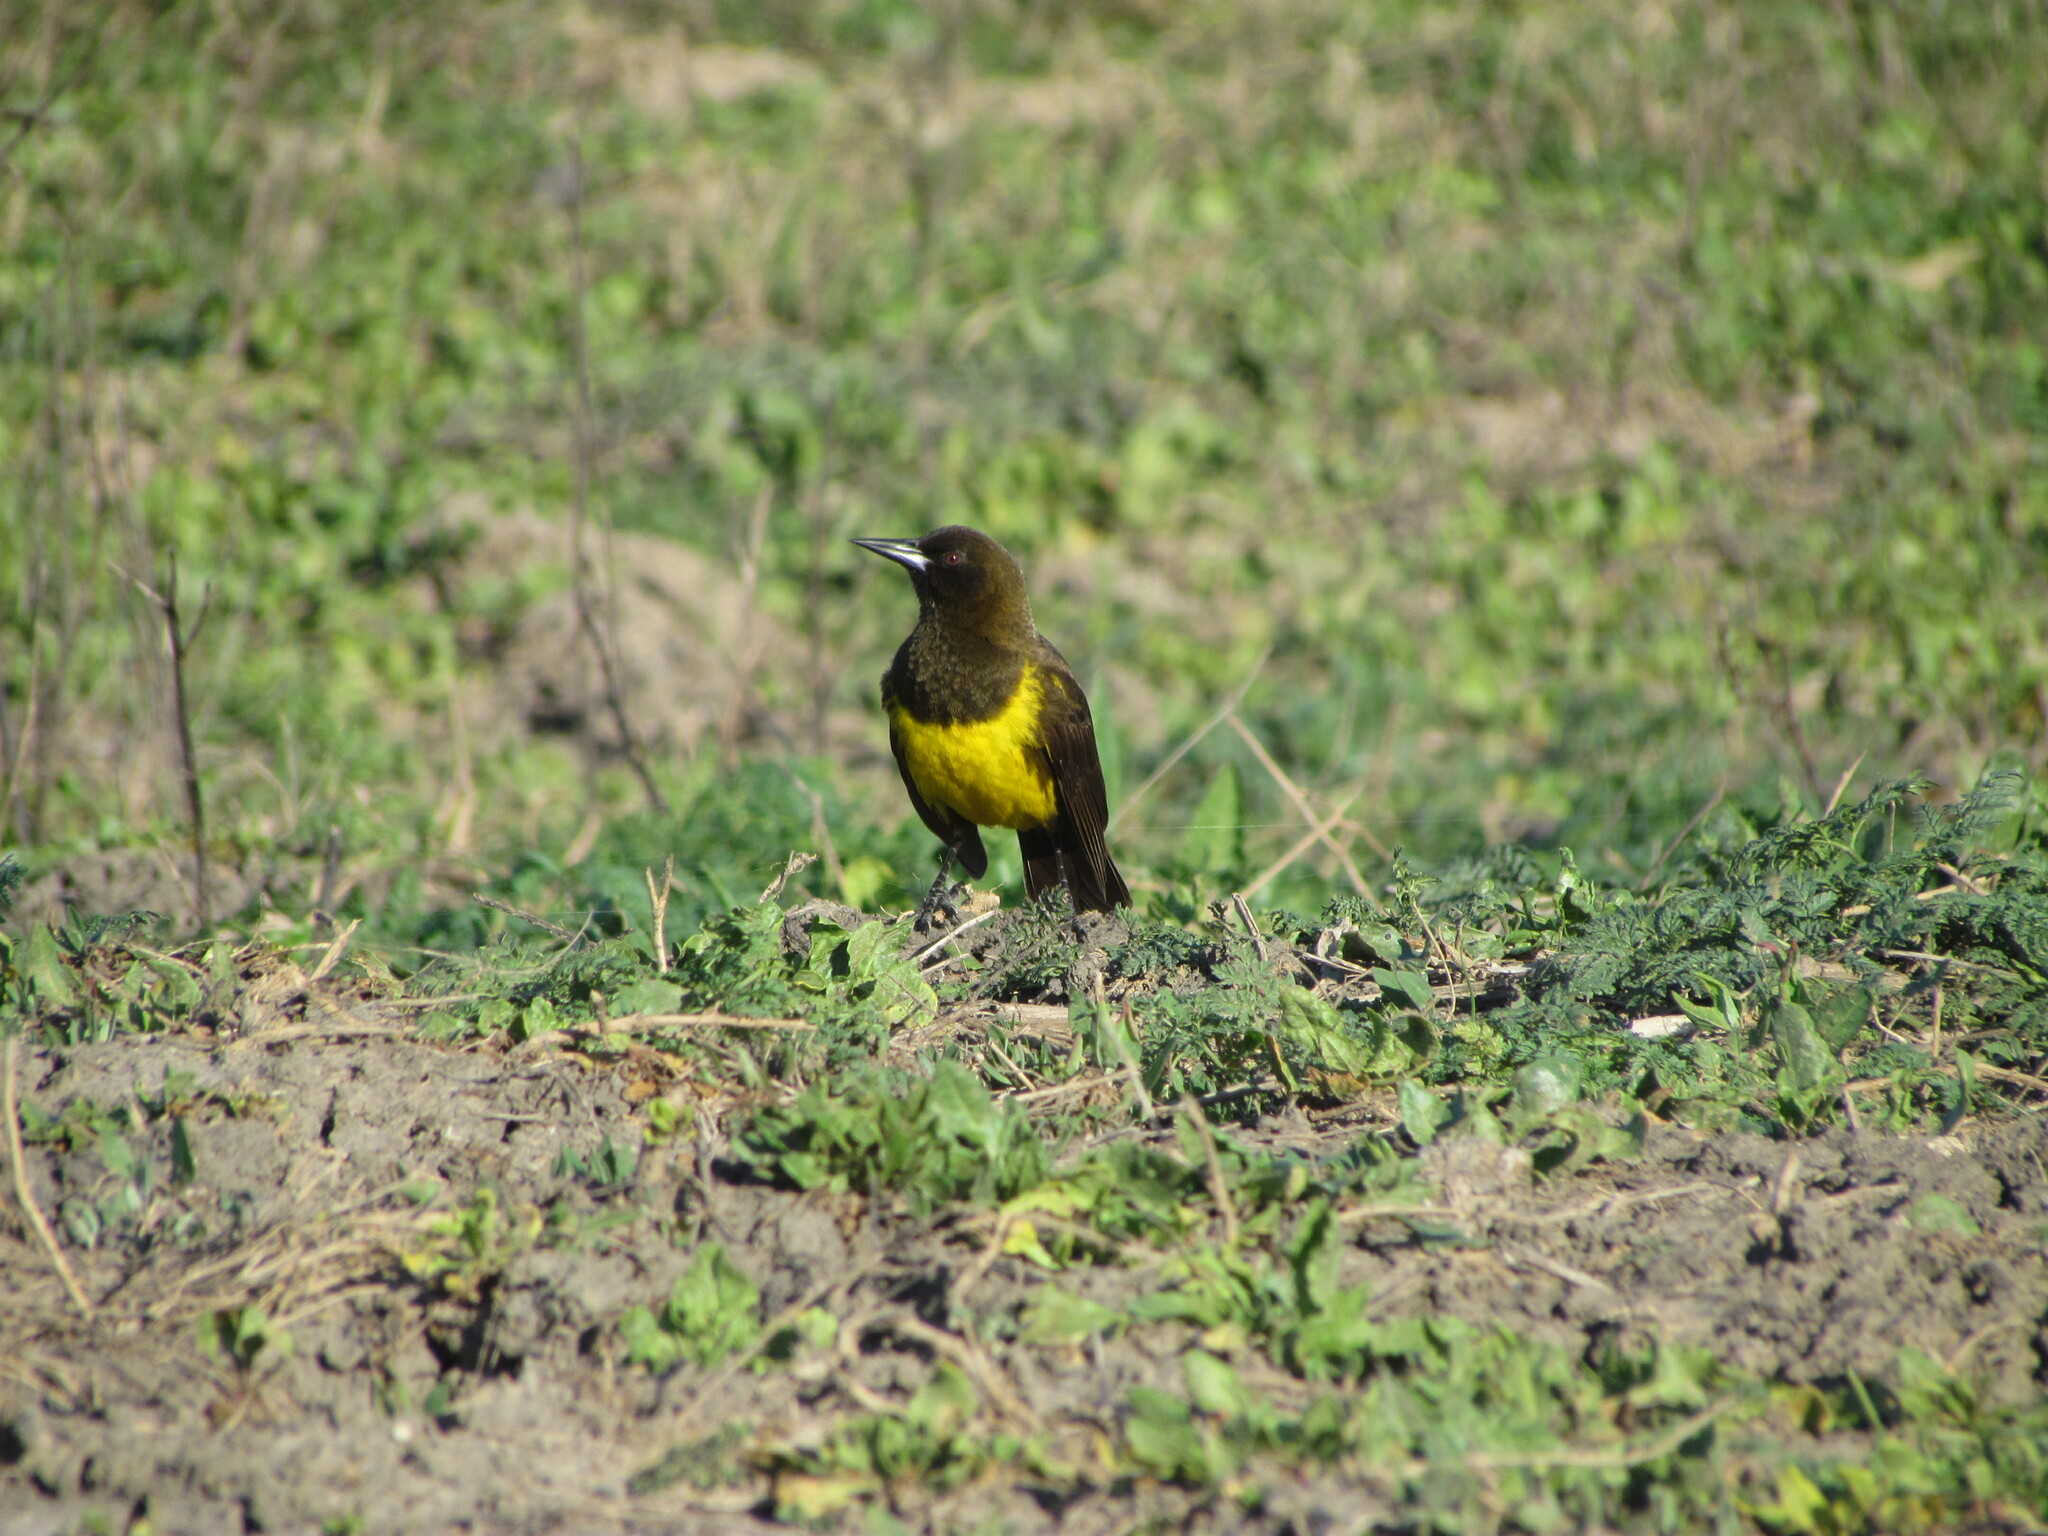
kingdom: Animalia
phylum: Chordata
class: Aves
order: Passeriformes
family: Icteridae
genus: Pseudoleistes
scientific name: Pseudoleistes virescens
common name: Brown-and-yellow marshbird
